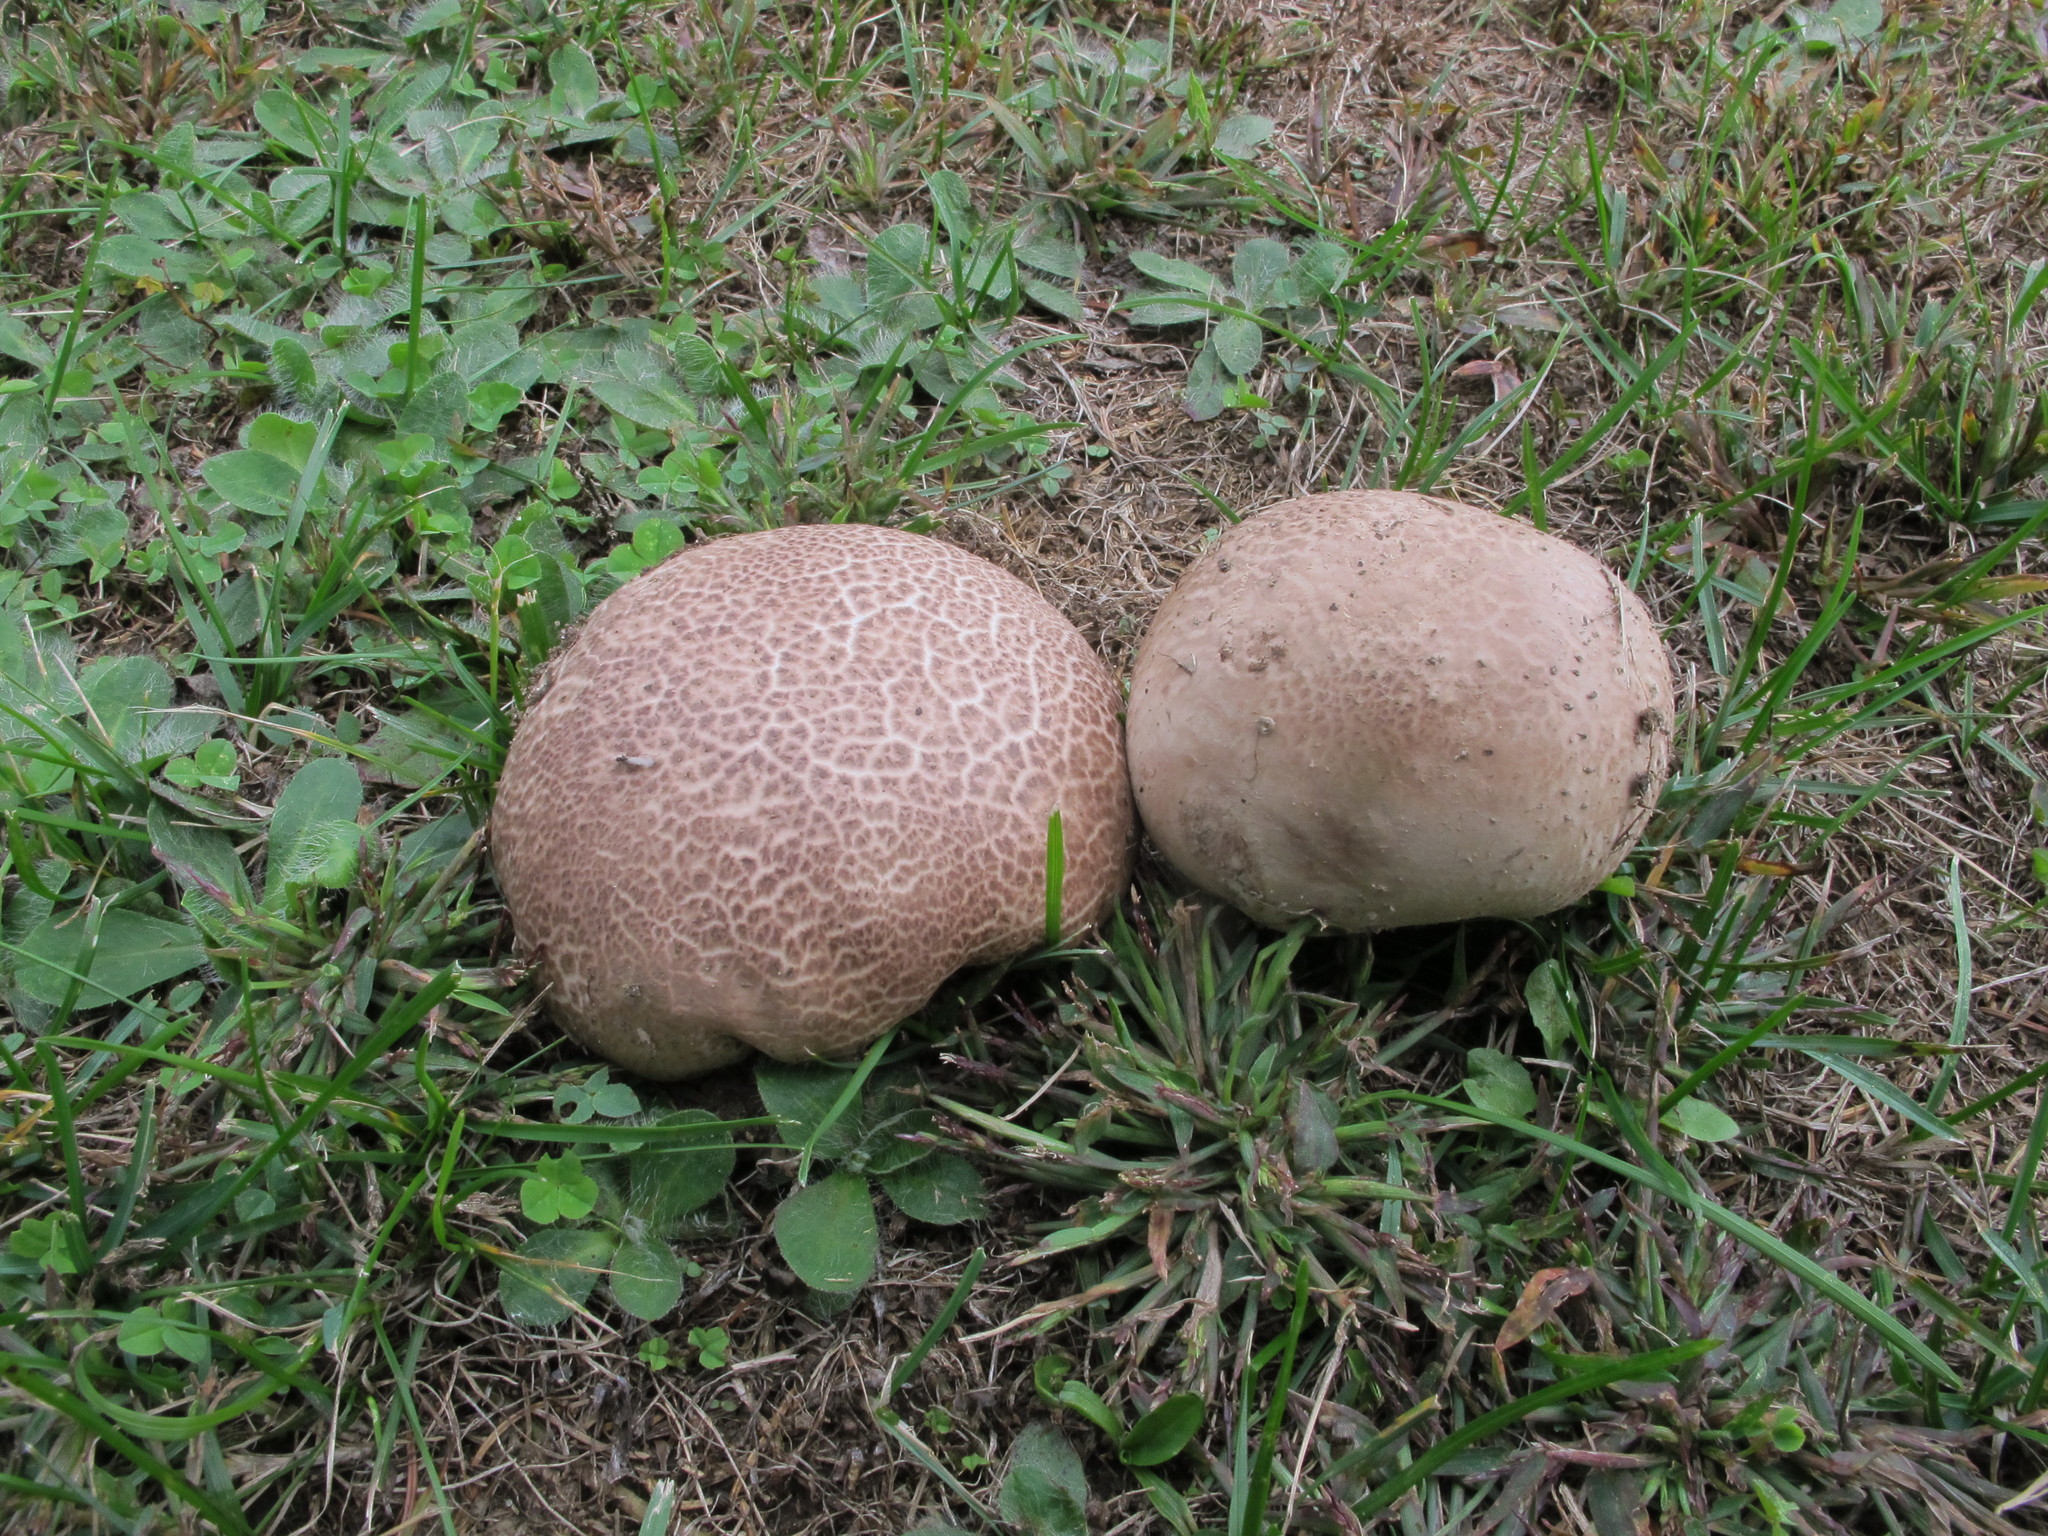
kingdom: Fungi
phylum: Basidiomycota
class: Agaricomycetes
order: Agaricales
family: Lycoperdaceae
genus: Calvatia
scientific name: Calvatia cyathiformis
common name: Purple-spored puffball
